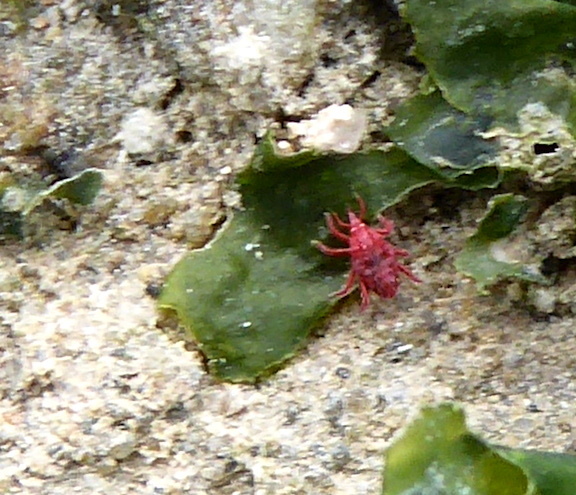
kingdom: Animalia
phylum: Arthropoda
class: Arachnida
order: Trombidiformes
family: Bdellidae
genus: Neomolgus
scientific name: Neomolgus littoralis
